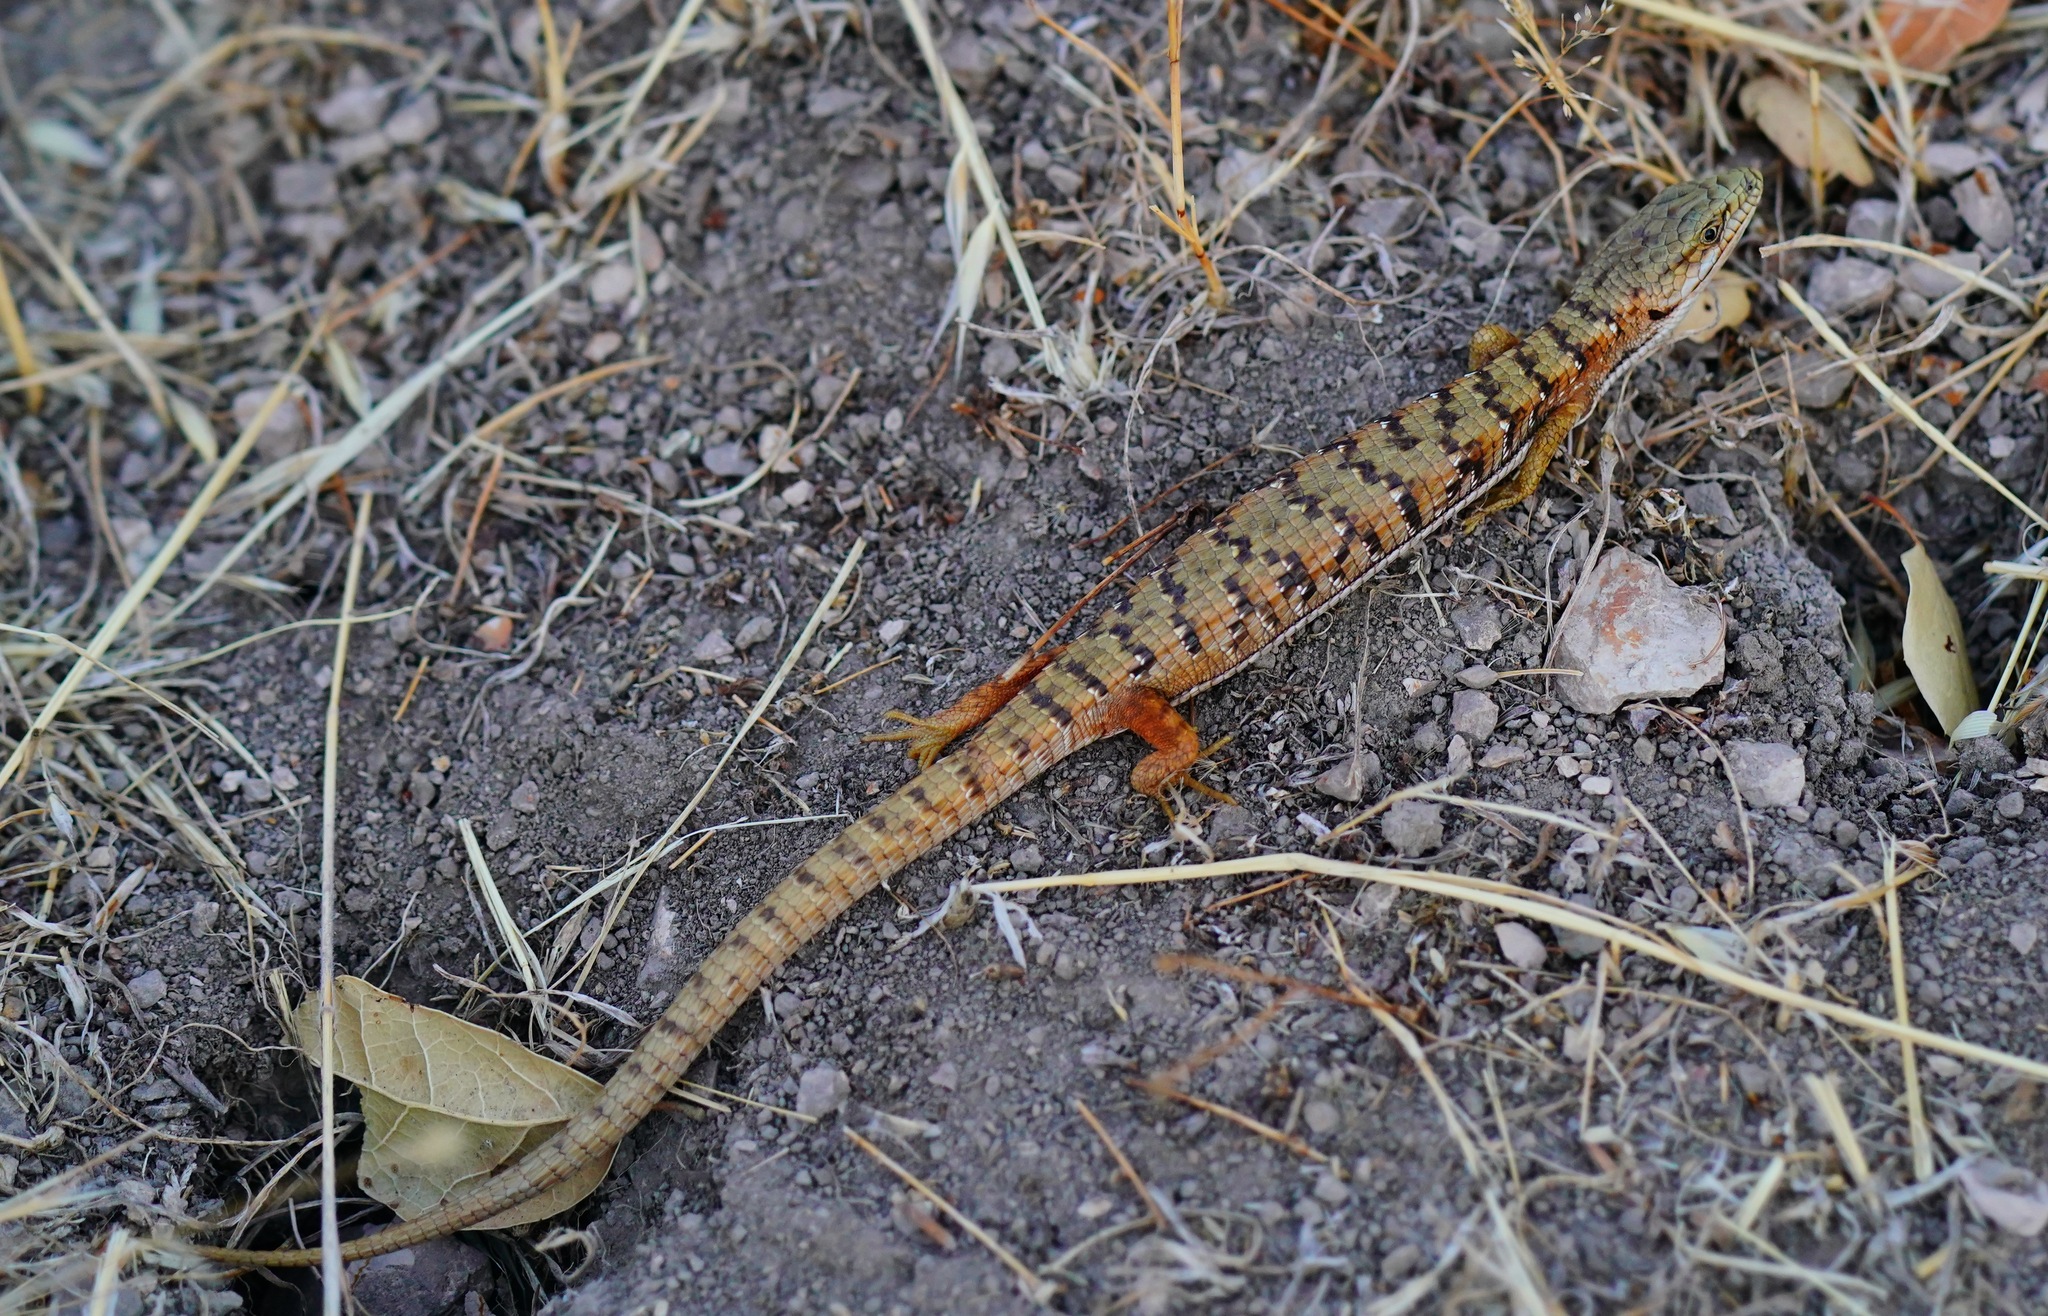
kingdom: Animalia
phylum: Chordata
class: Squamata
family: Anguidae
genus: Elgaria
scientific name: Elgaria multicarinata
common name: Southern alligator lizard
